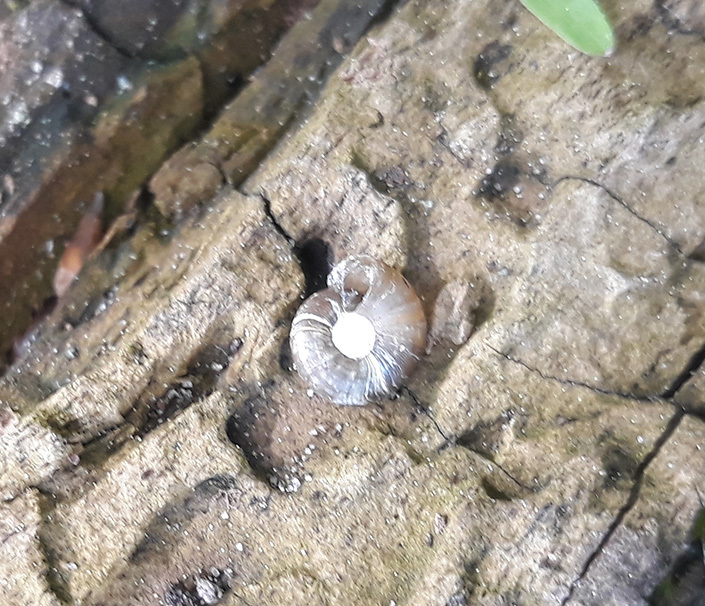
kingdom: Animalia
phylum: Mollusca
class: Gastropoda
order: Stylommatophora
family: Discidae
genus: Discus
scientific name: Discus ruderatus
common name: Brown disc snail
